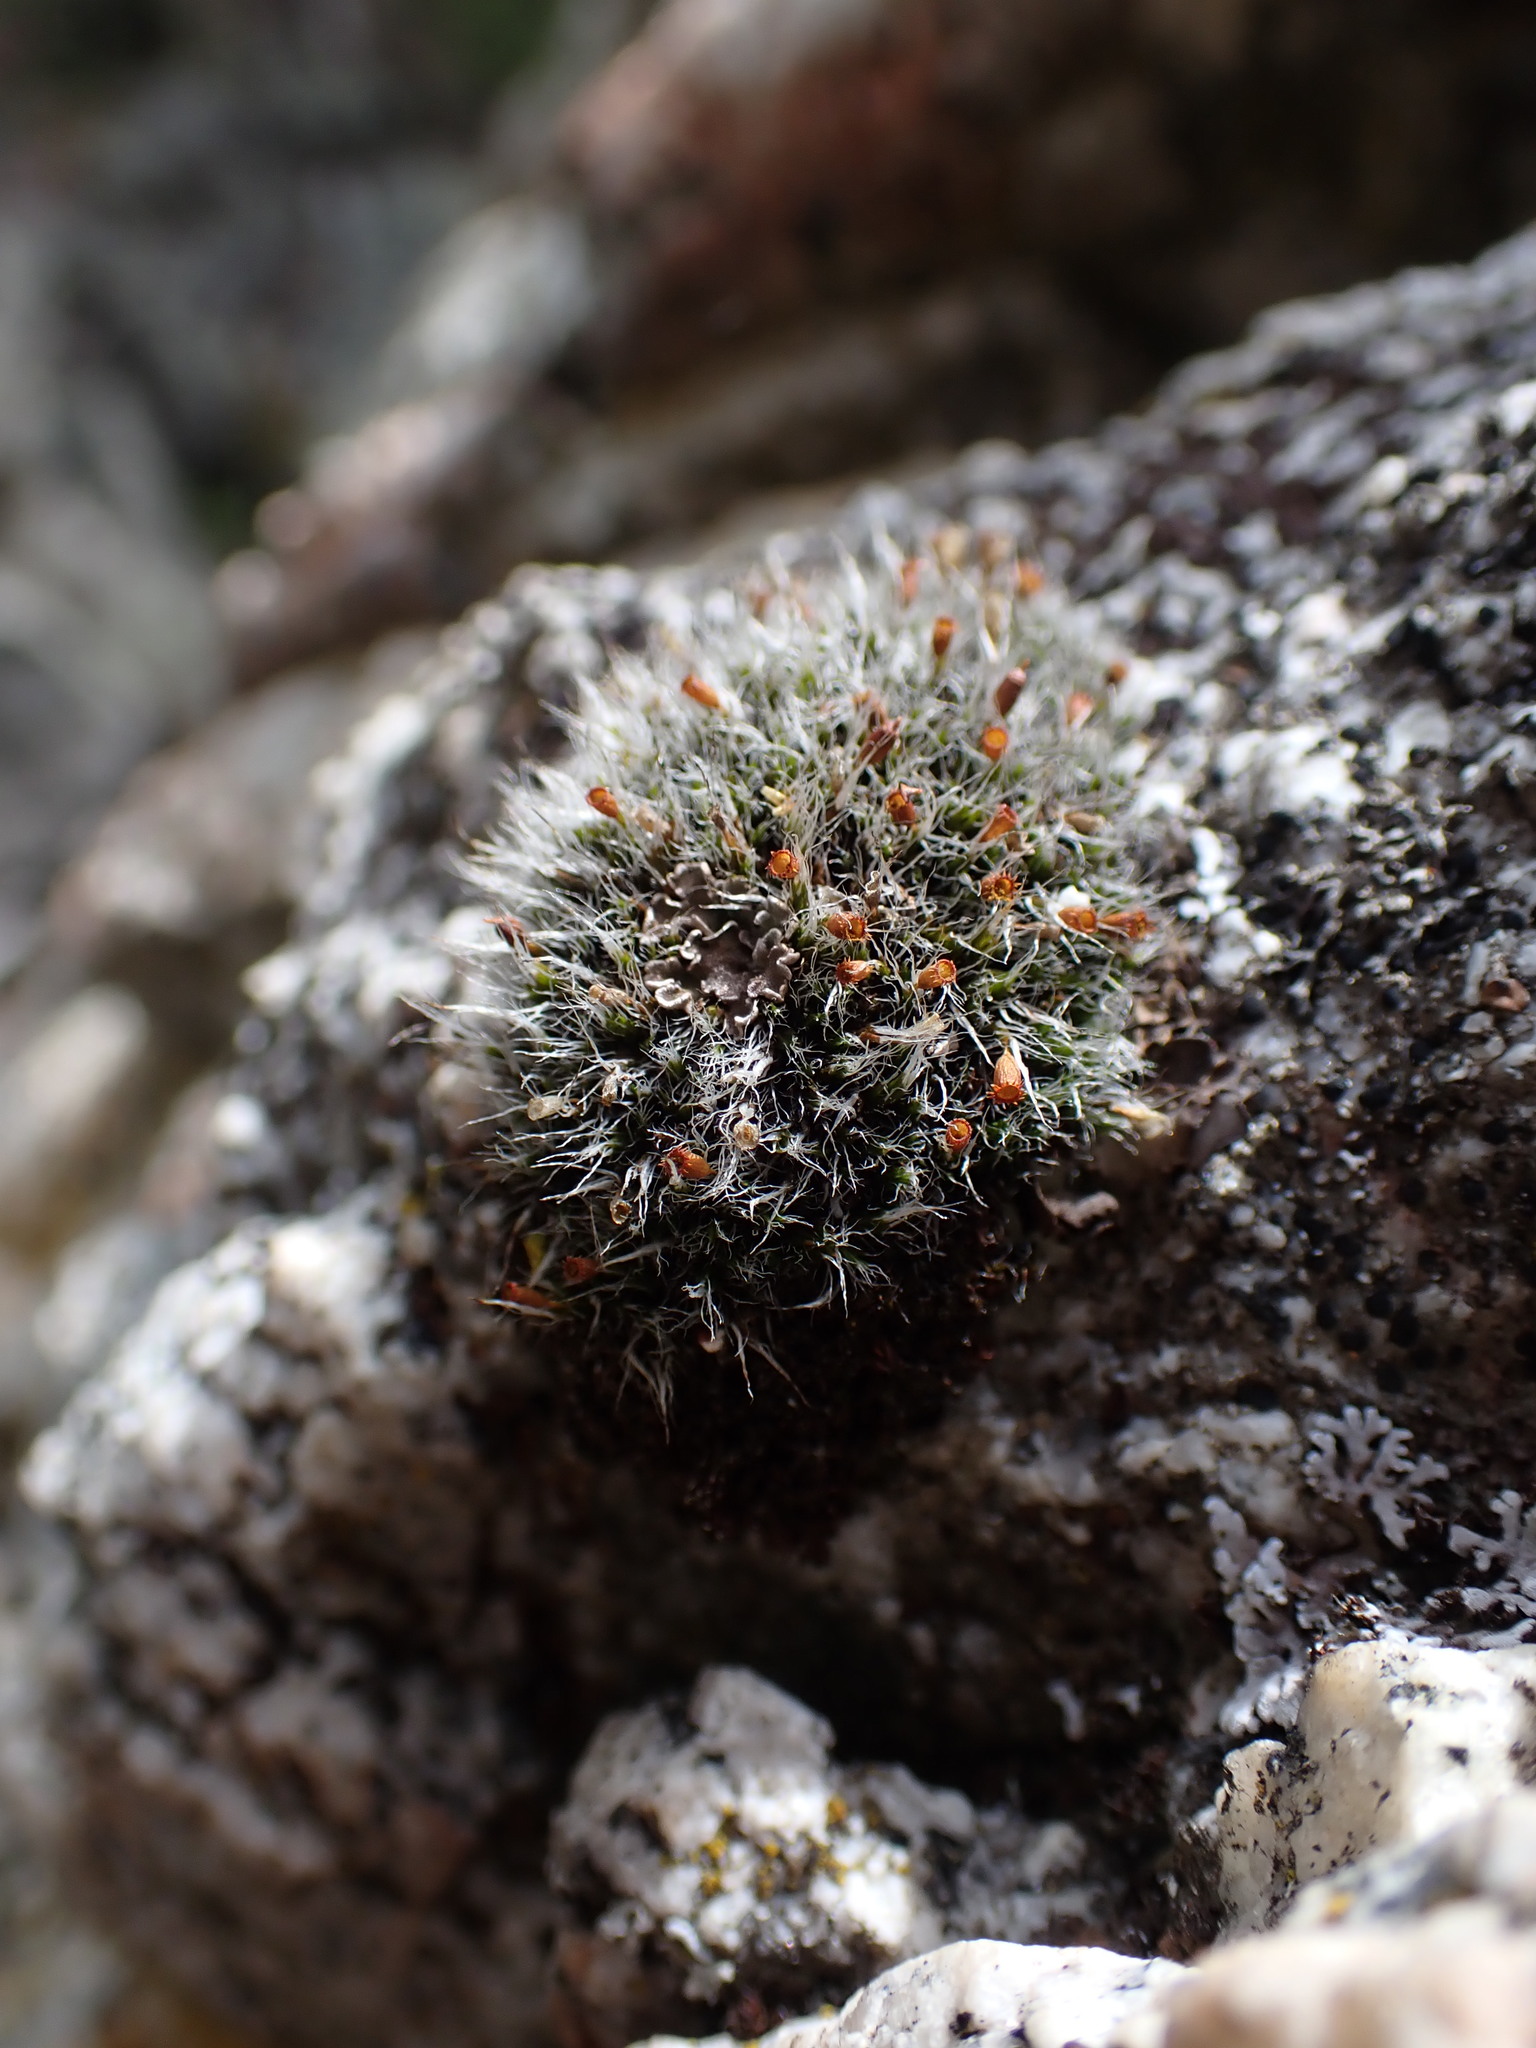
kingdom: Plantae
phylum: Bryophyta
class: Bryopsida
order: Grimmiales
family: Grimmiaceae
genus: Coscinodon
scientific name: Coscinodon calyptratus
